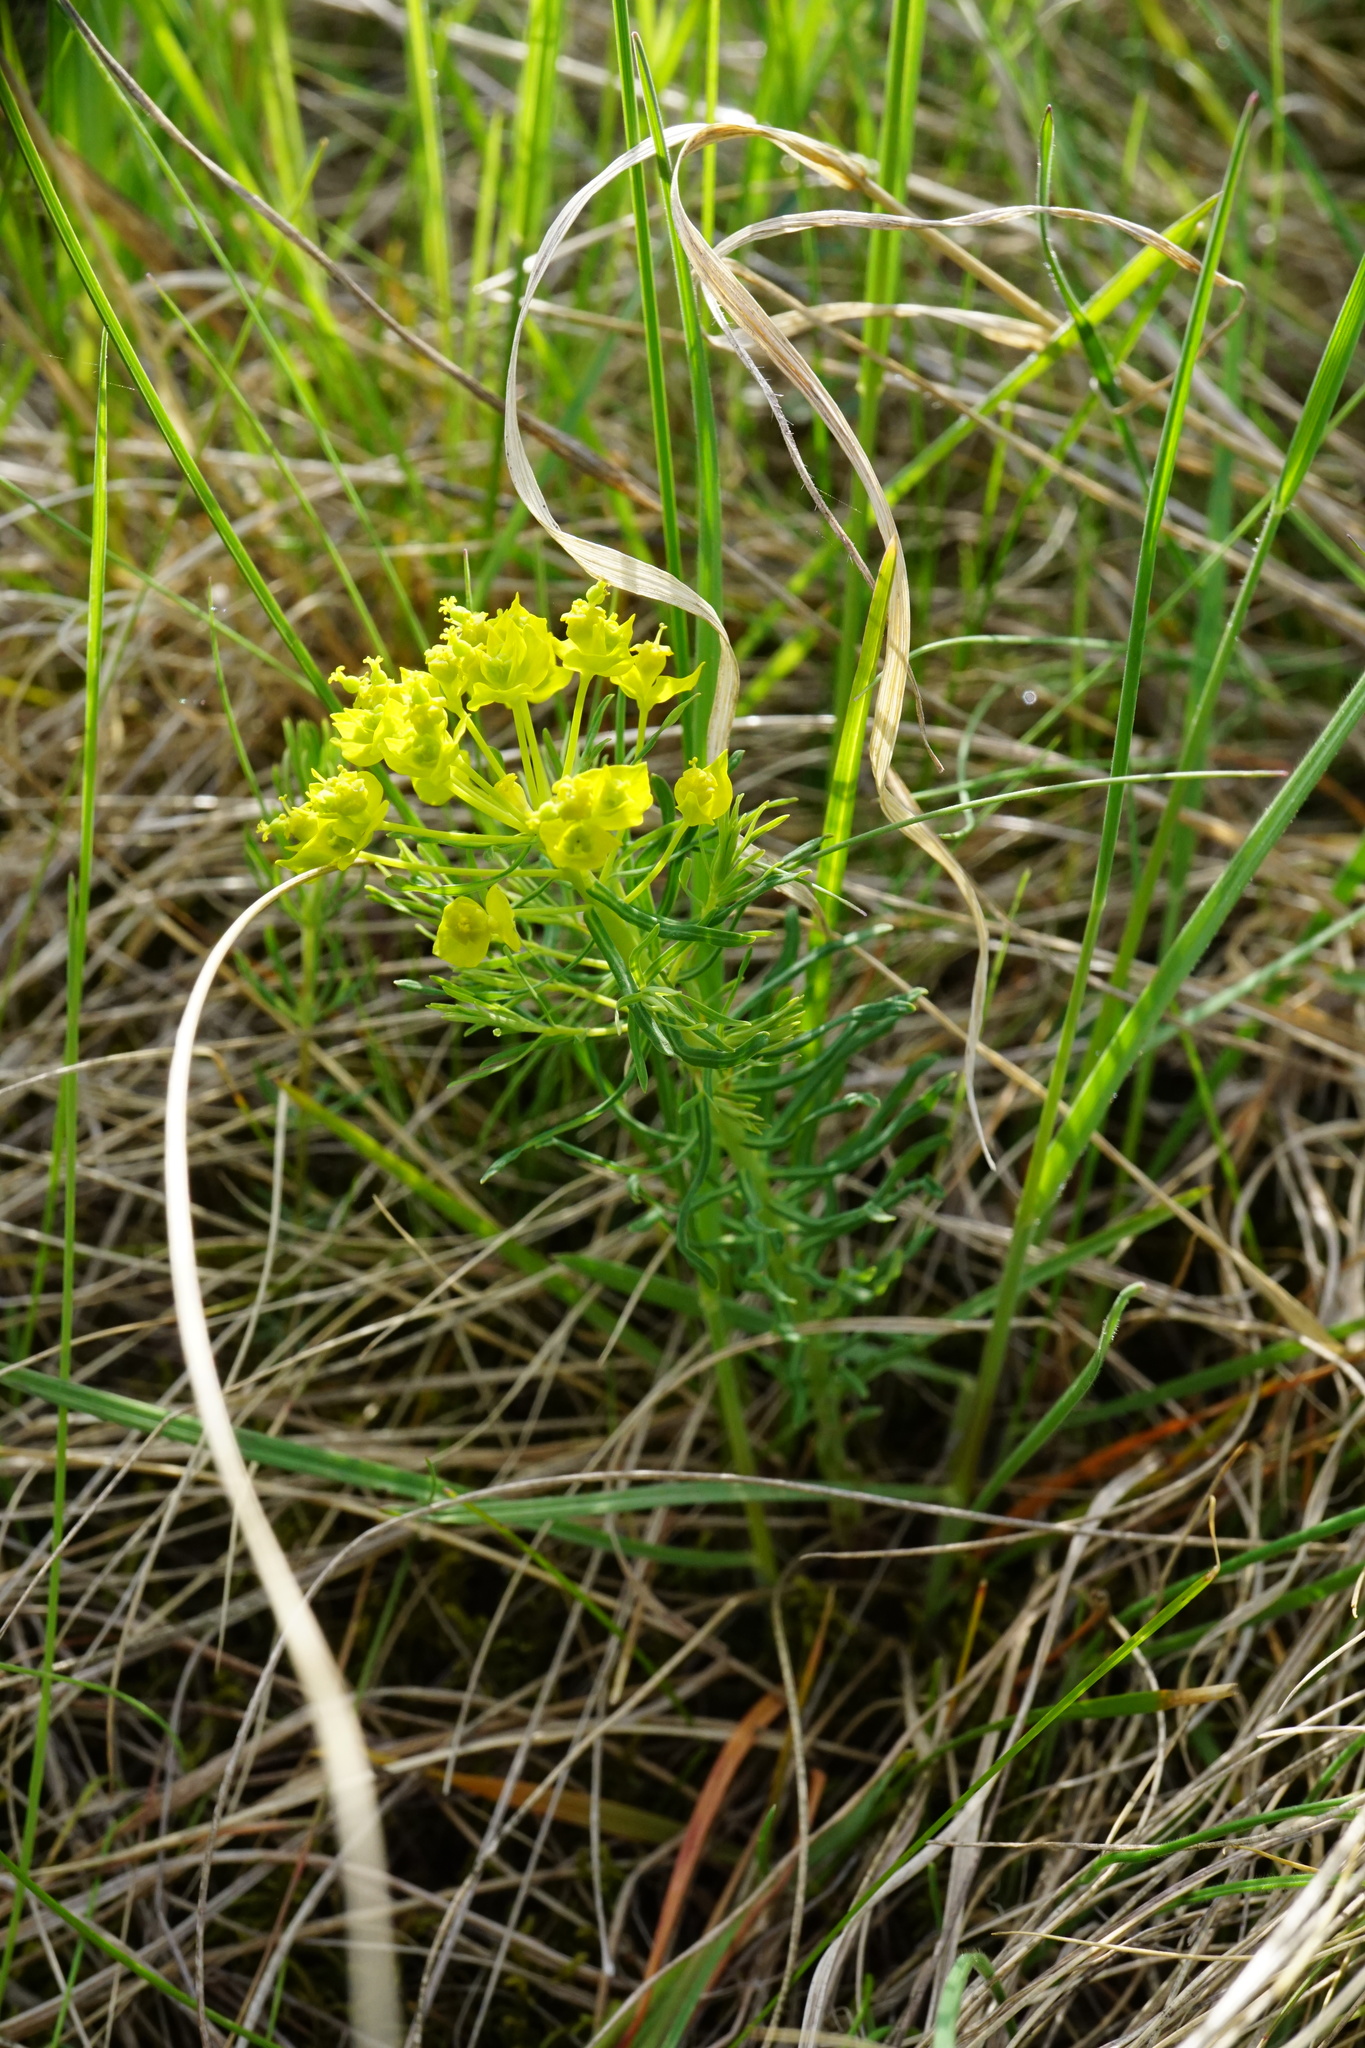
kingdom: Plantae
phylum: Tracheophyta
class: Magnoliopsida
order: Malpighiales
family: Euphorbiaceae
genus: Euphorbia
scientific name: Euphorbia cyparissias
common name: Cypress spurge
